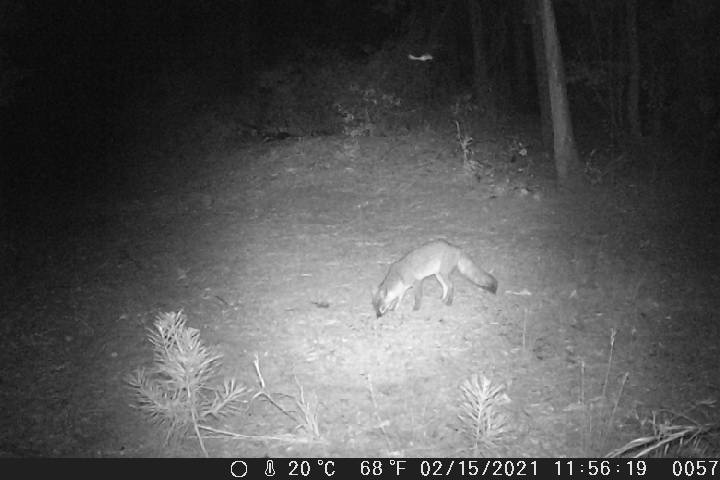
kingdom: Animalia
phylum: Chordata
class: Mammalia
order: Carnivora
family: Canidae
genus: Urocyon
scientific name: Urocyon cinereoargenteus
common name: Gray fox
